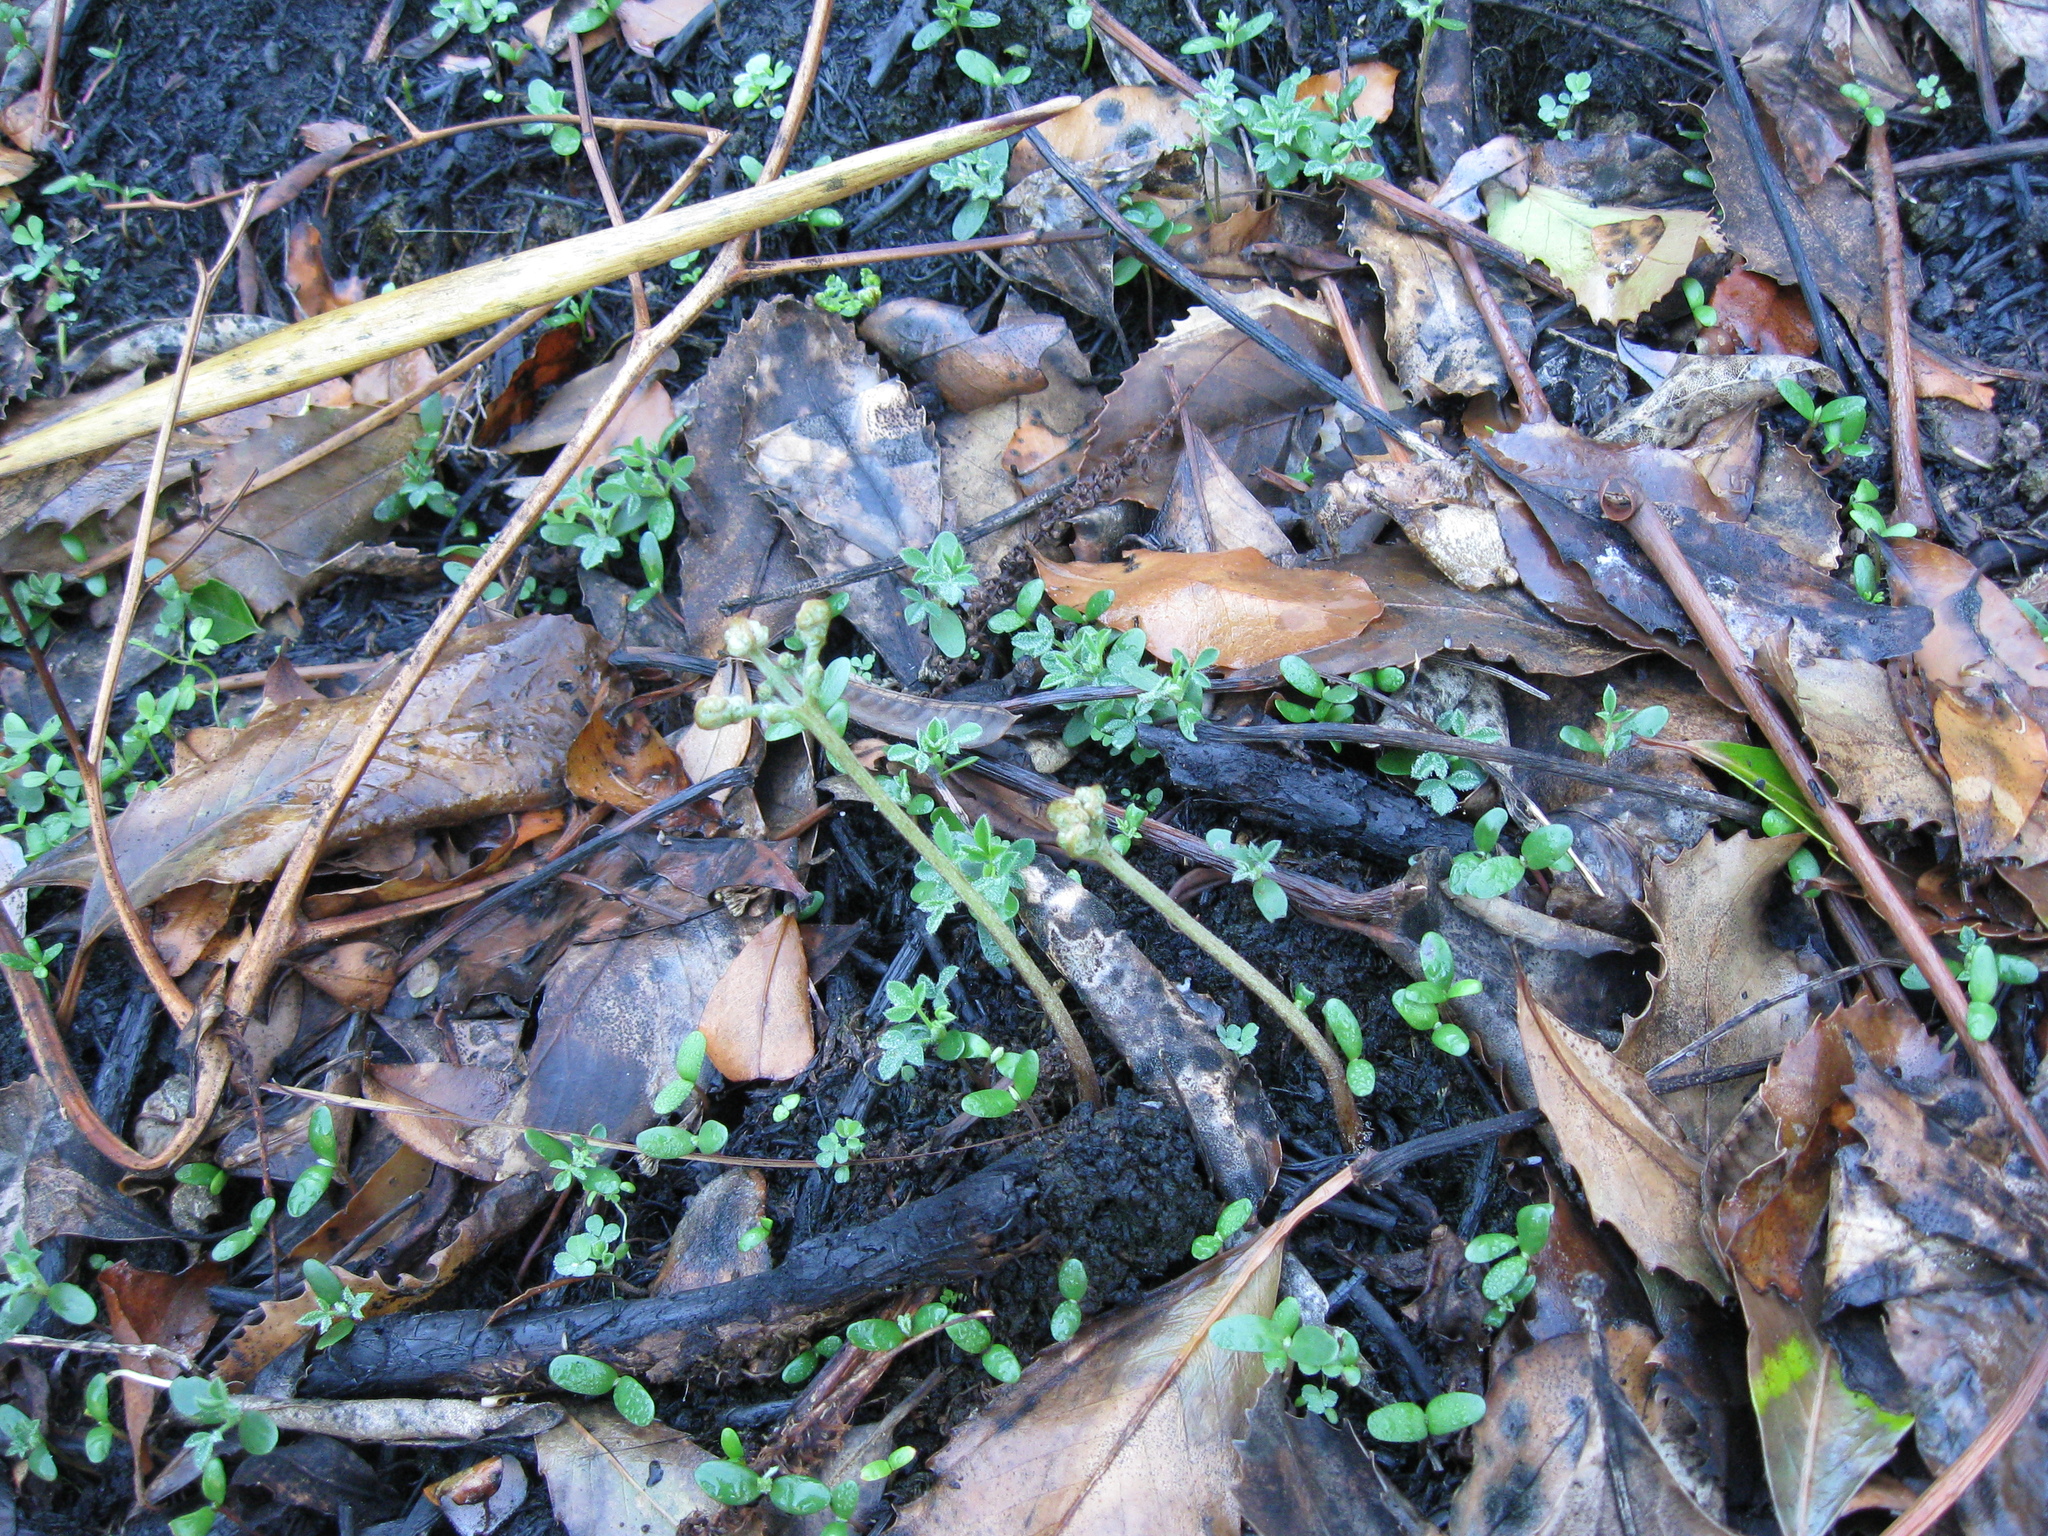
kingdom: Plantae
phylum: Tracheophyta
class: Polypodiopsida
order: Polypodiales
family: Dennstaedtiaceae
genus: Pteridium
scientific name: Pteridium esculentum
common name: Bracken fern
